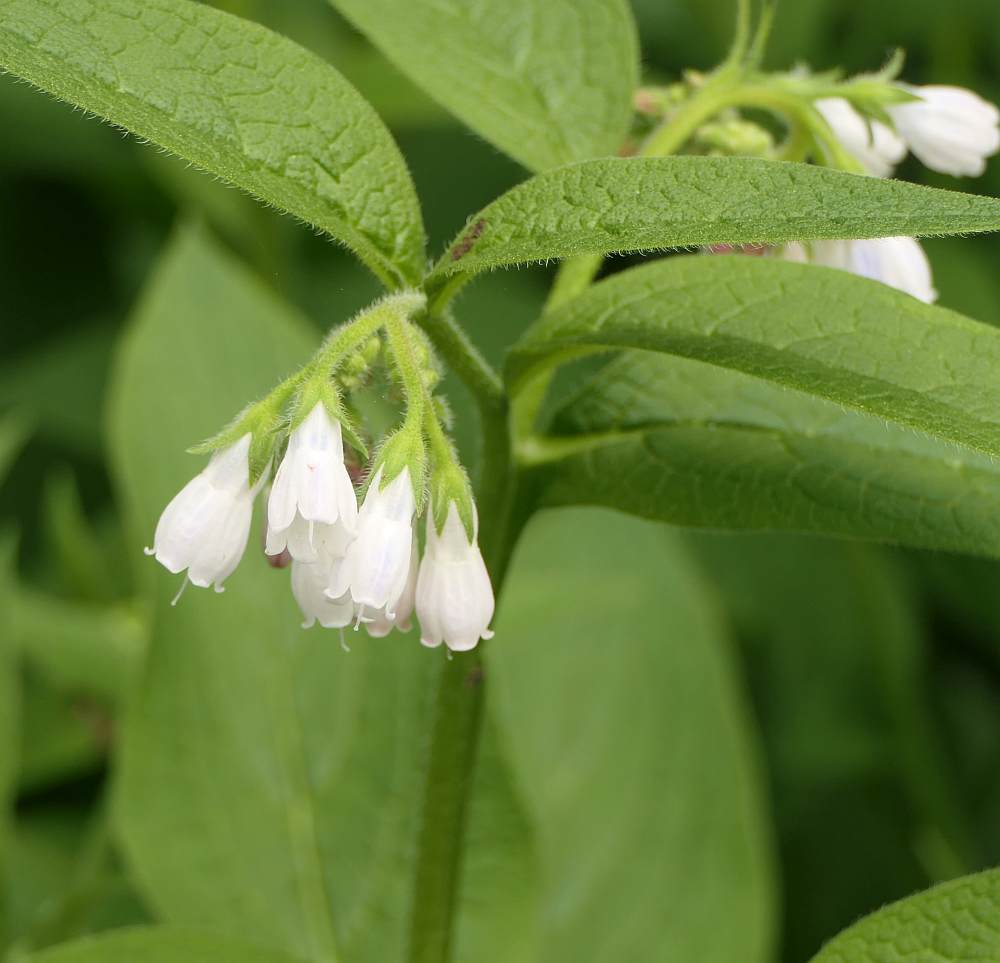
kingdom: Plantae
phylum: Tracheophyta
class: Magnoliopsida
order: Boraginales
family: Boraginaceae
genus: Symphytum
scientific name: Symphytum officinale
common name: Common comfrey
